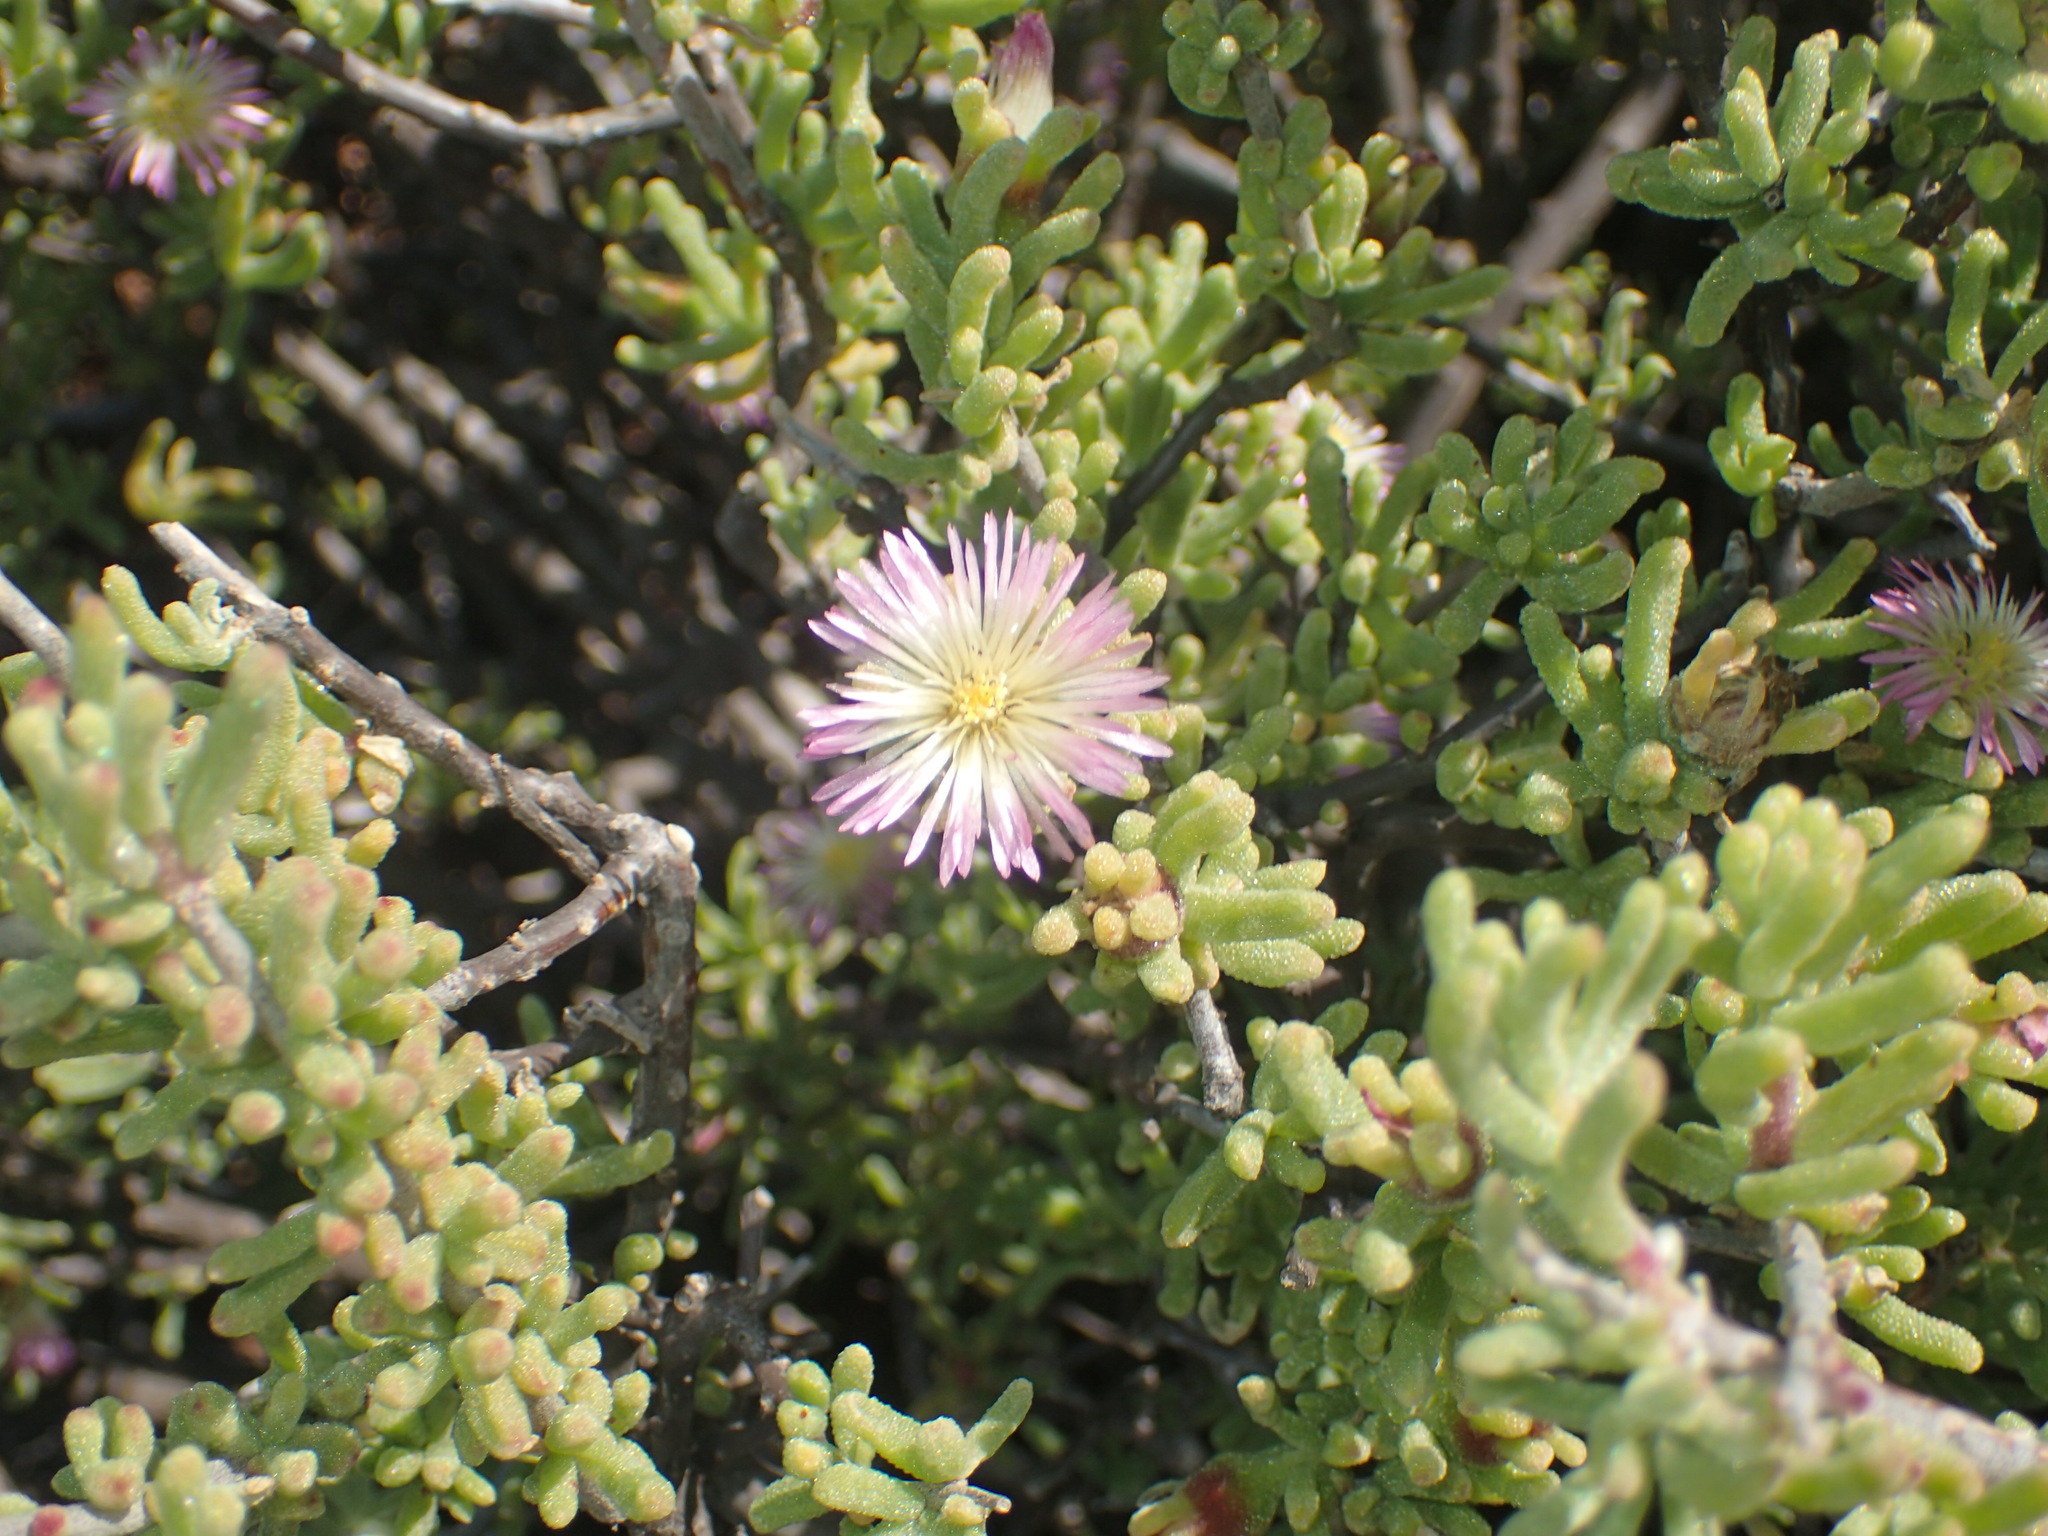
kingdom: Plantae
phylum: Tracheophyta
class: Magnoliopsida
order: Caryophyllales
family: Aizoaceae
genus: Mesembryanthemum
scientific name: Mesembryanthemum deciduum
